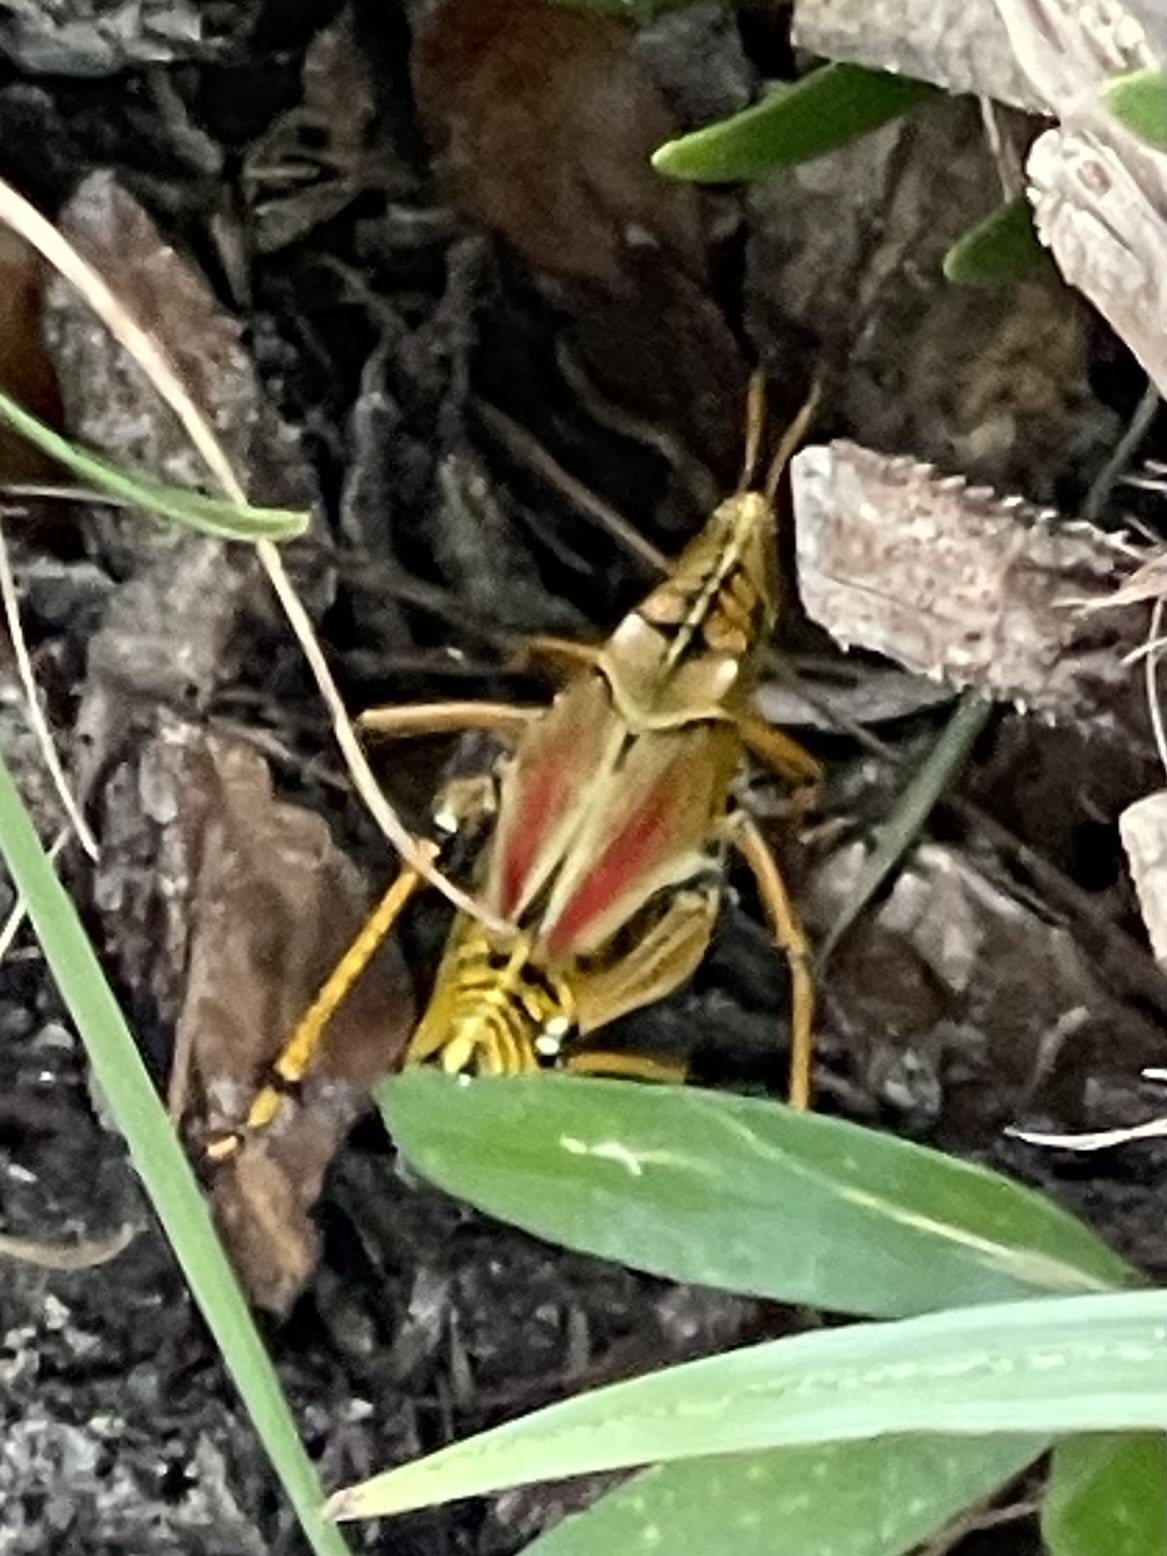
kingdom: Animalia
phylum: Arthropoda
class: Insecta
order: Orthoptera
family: Romaleidae
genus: Romalea
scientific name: Romalea microptera
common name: Eastern lubber grasshopper
